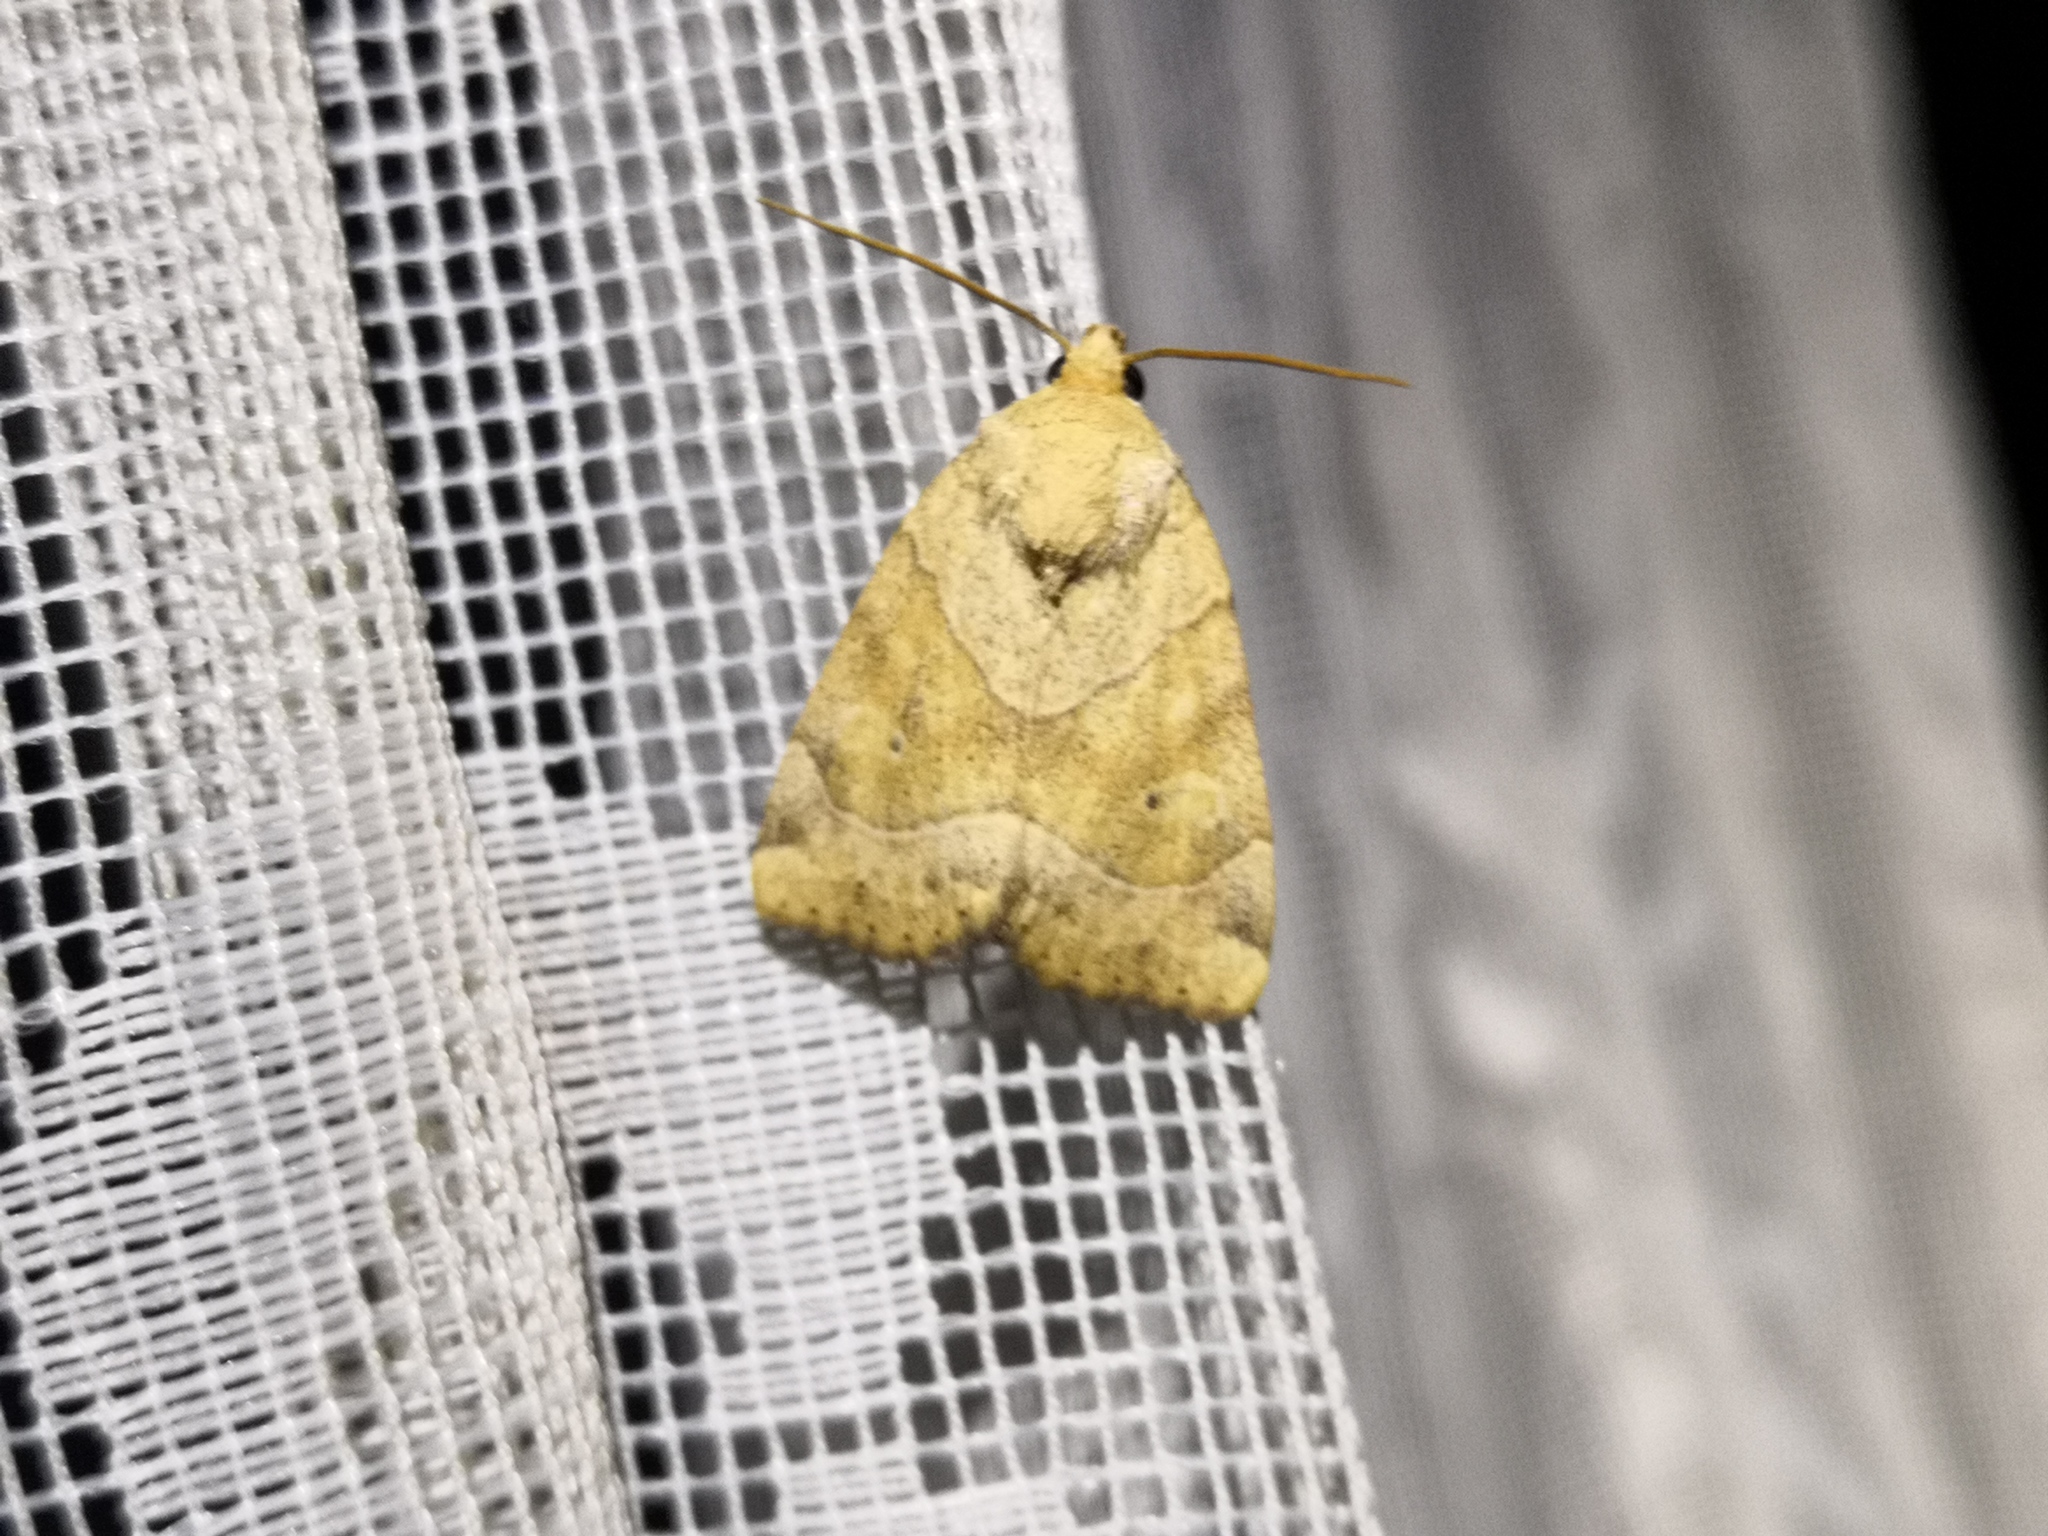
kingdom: Animalia
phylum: Arthropoda
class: Insecta
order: Lepidoptera
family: Noctuidae
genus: Cosmia
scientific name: Cosmia trapezina
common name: Dun-bar
